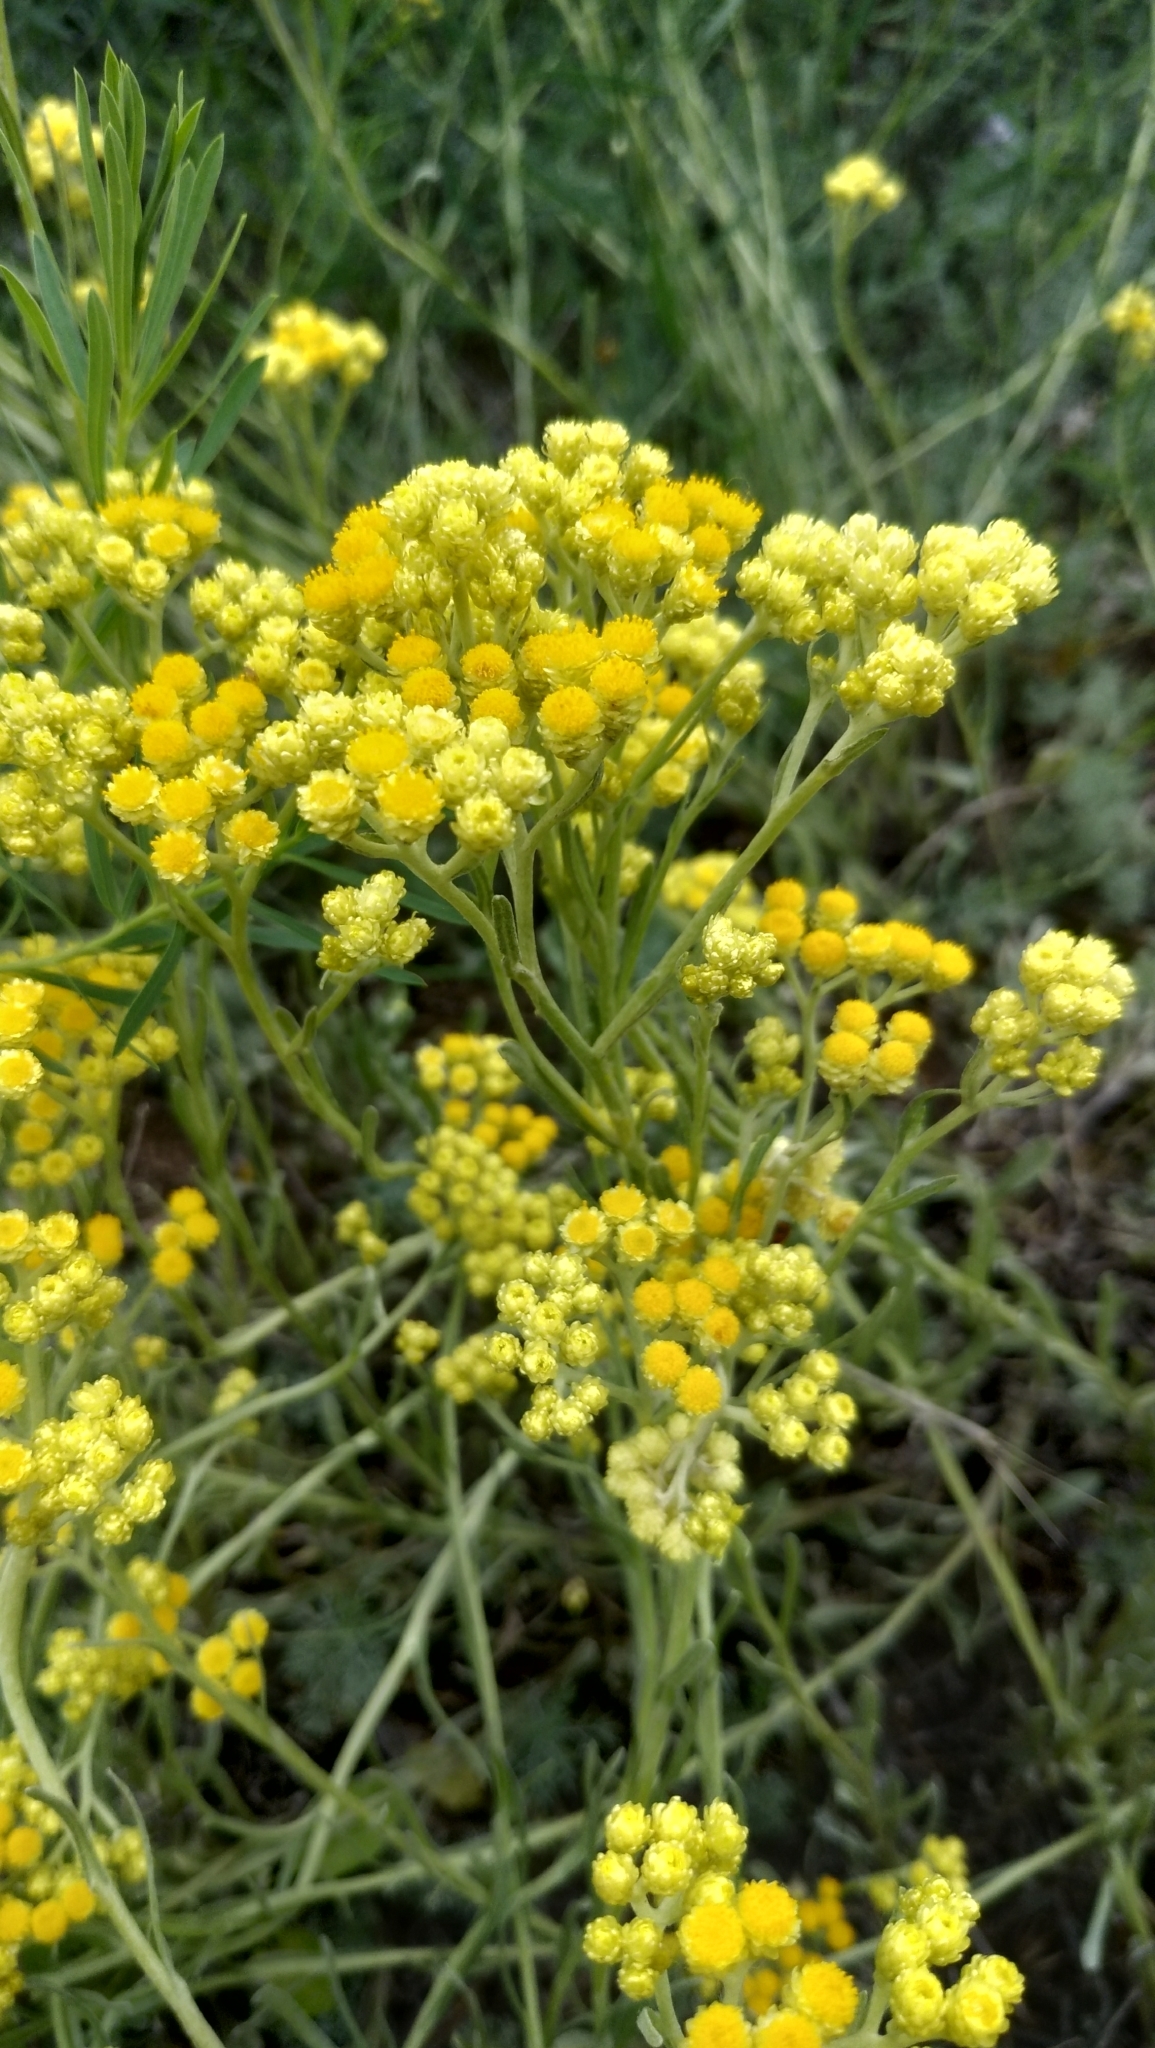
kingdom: Plantae
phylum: Tracheophyta
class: Magnoliopsida
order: Asterales
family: Asteraceae
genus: Helichrysum
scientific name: Helichrysum arenarium
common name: Strawflower
